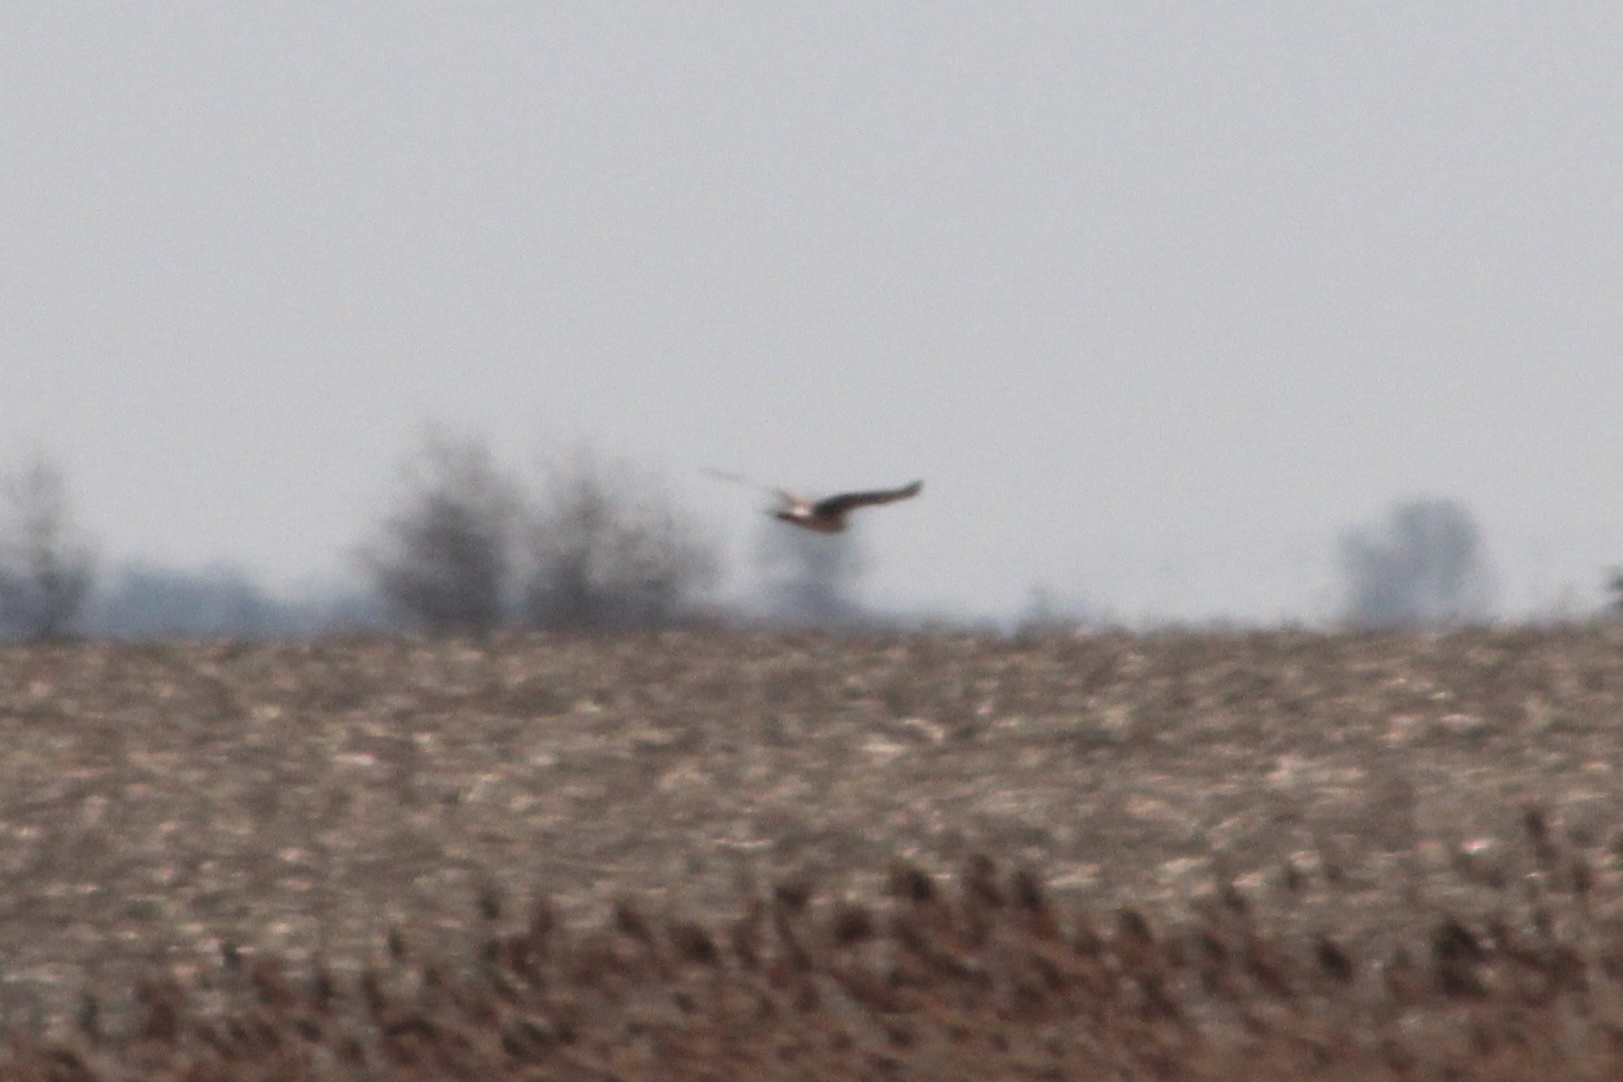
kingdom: Animalia
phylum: Chordata
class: Aves
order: Accipitriformes
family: Accipitridae
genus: Circus
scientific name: Circus cyaneus
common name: Hen harrier
